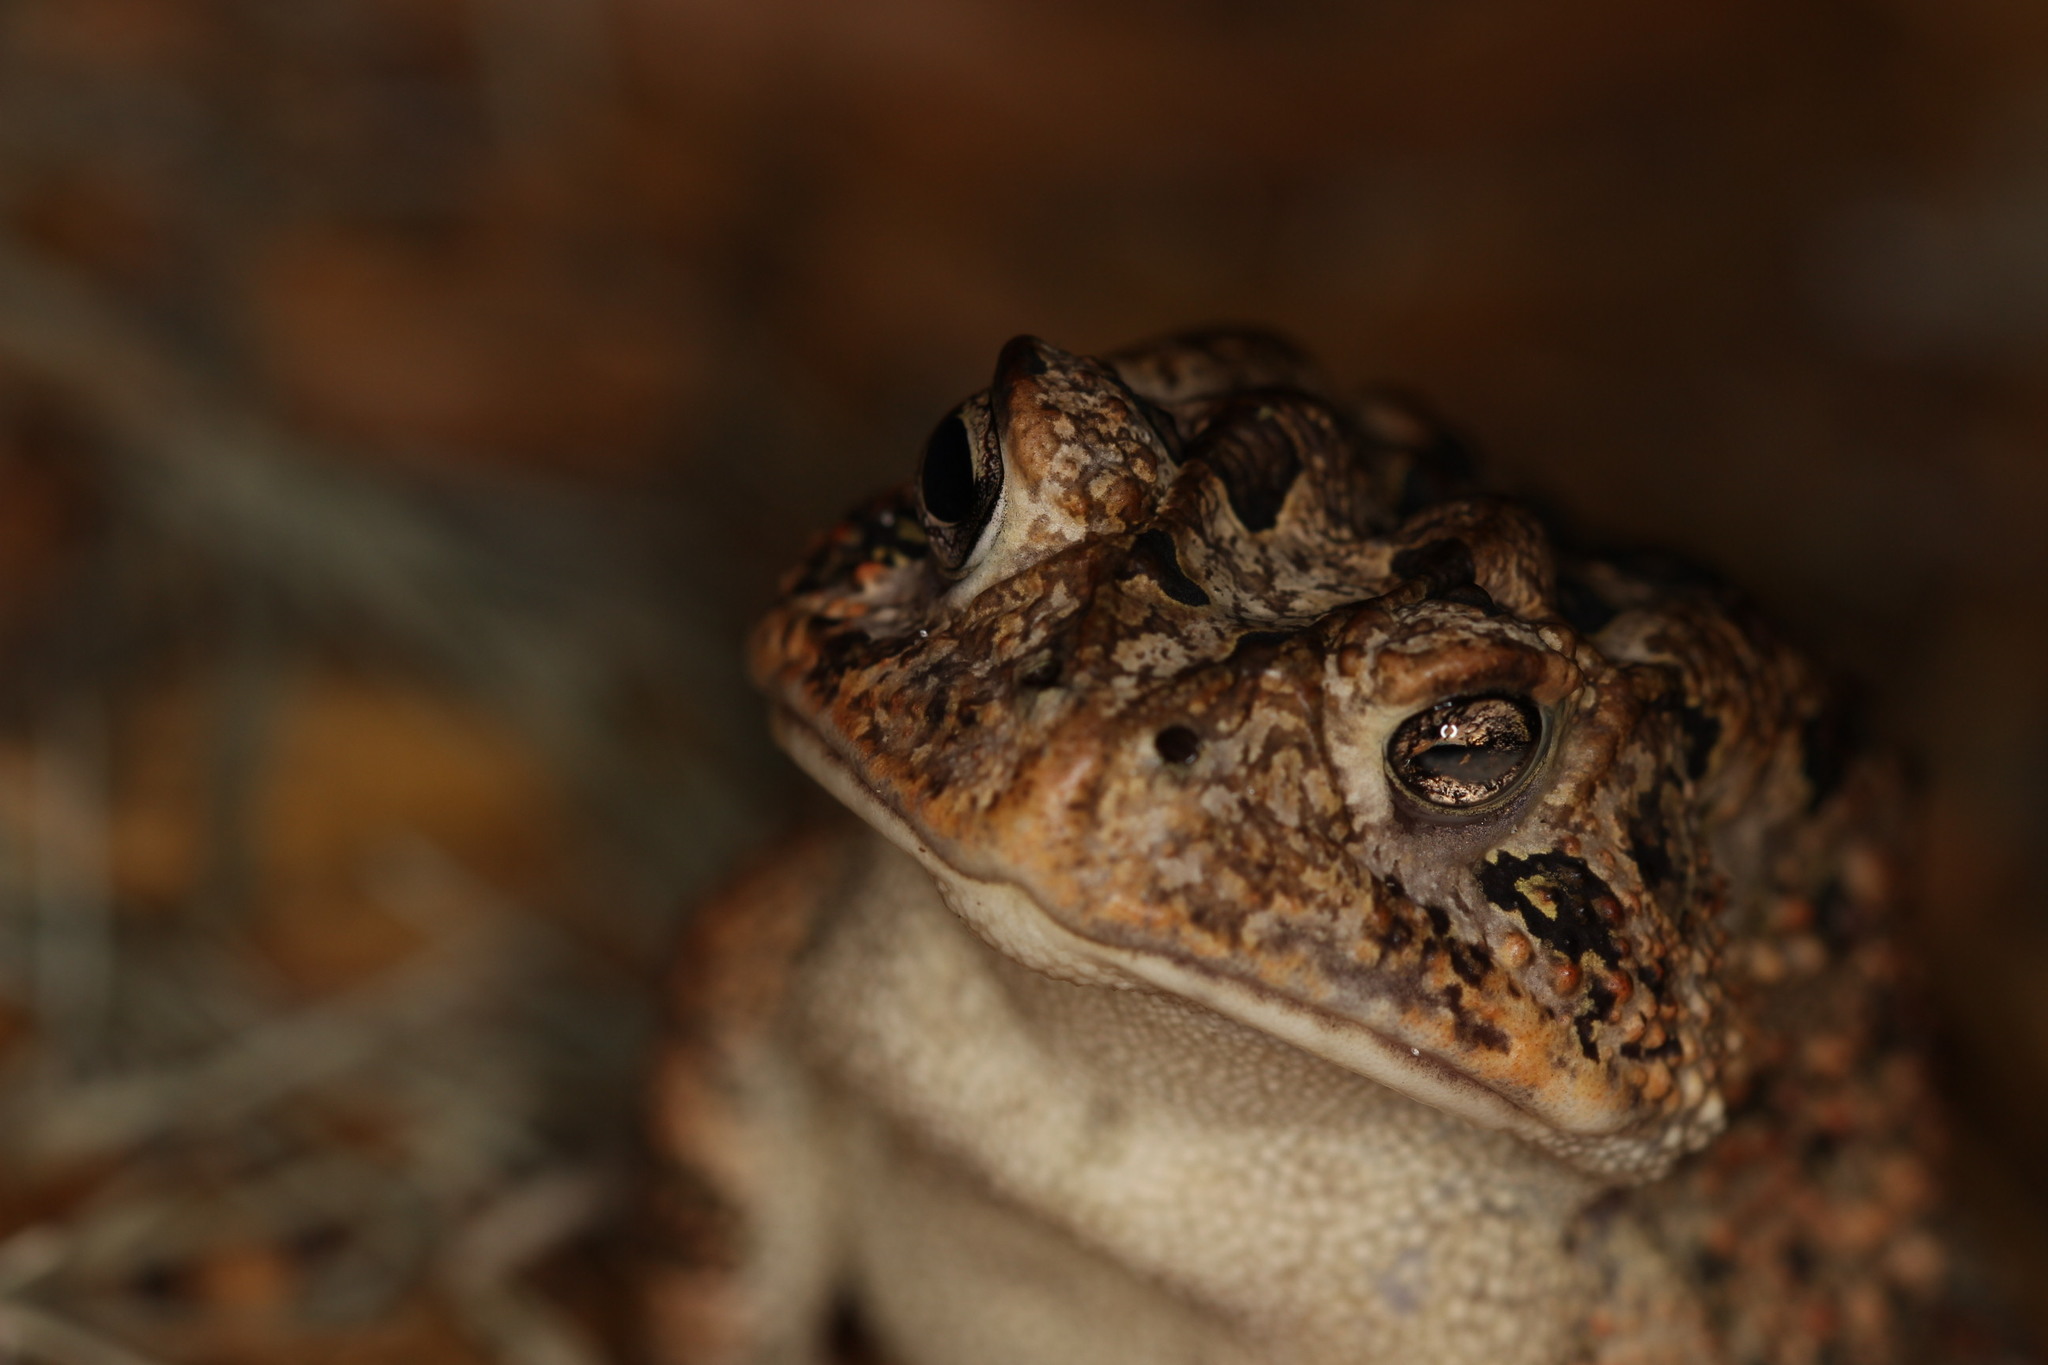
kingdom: Animalia
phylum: Chordata
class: Amphibia
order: Anura
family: Bufonidae
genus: Anaxyrus
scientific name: Anaxyrus terrestris
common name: Southern toad
